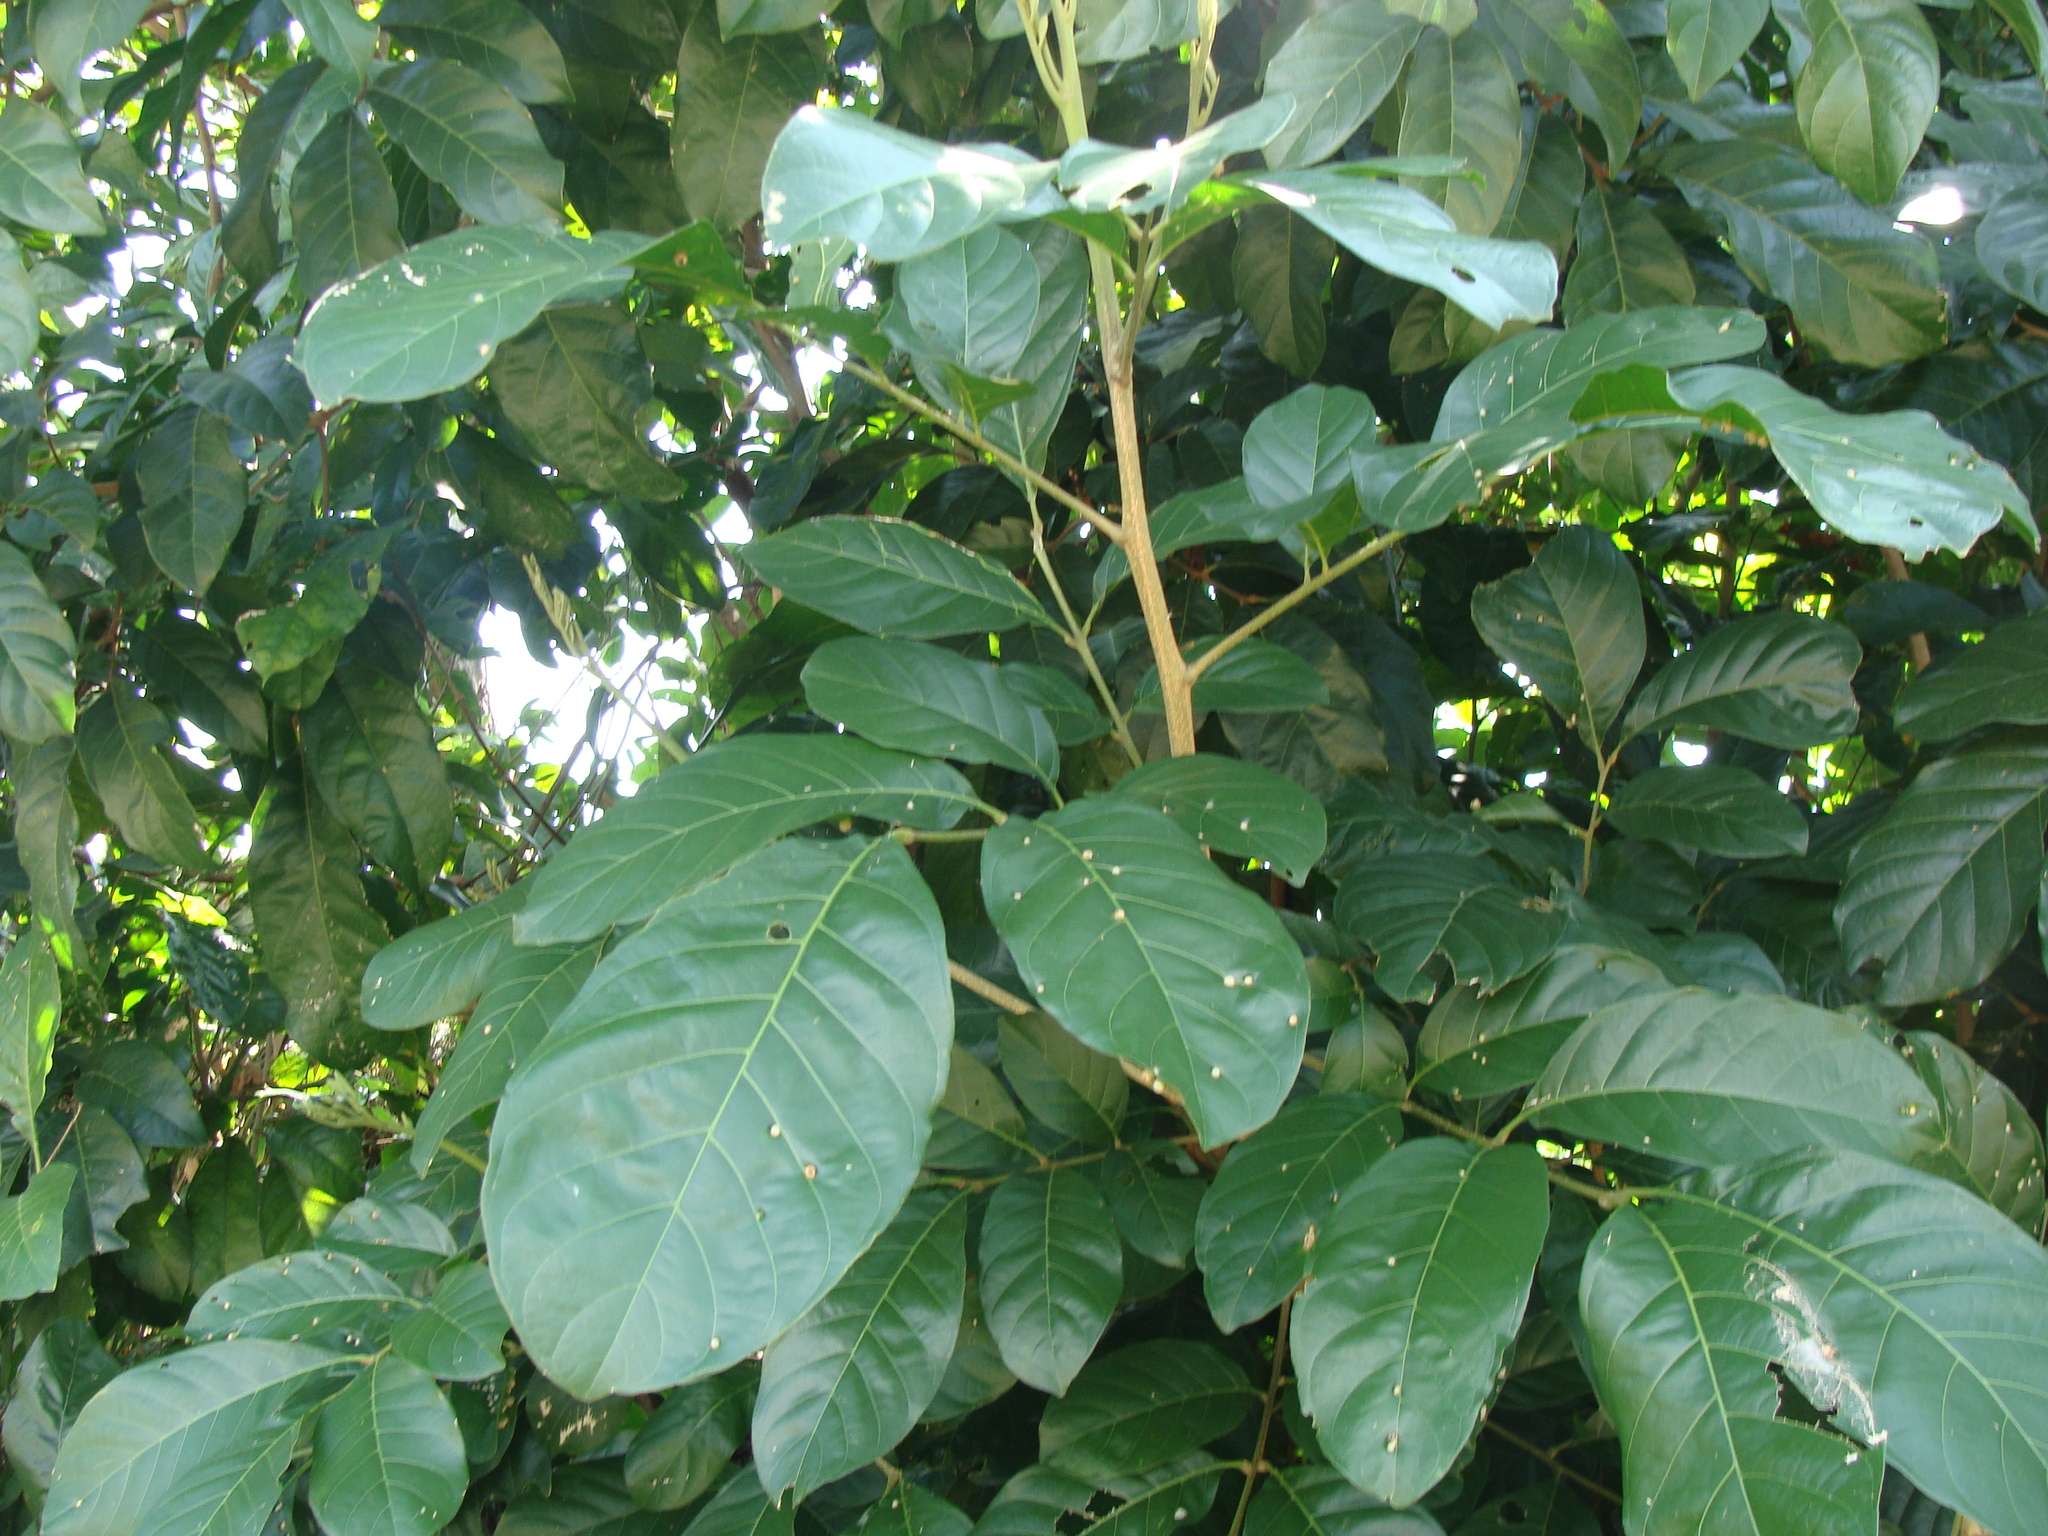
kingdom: Plantae
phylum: Tracheophyta
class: Magnoliopsida
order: Sapindales
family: Sapindaceae
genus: Matayba
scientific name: Matayba clavelligera
